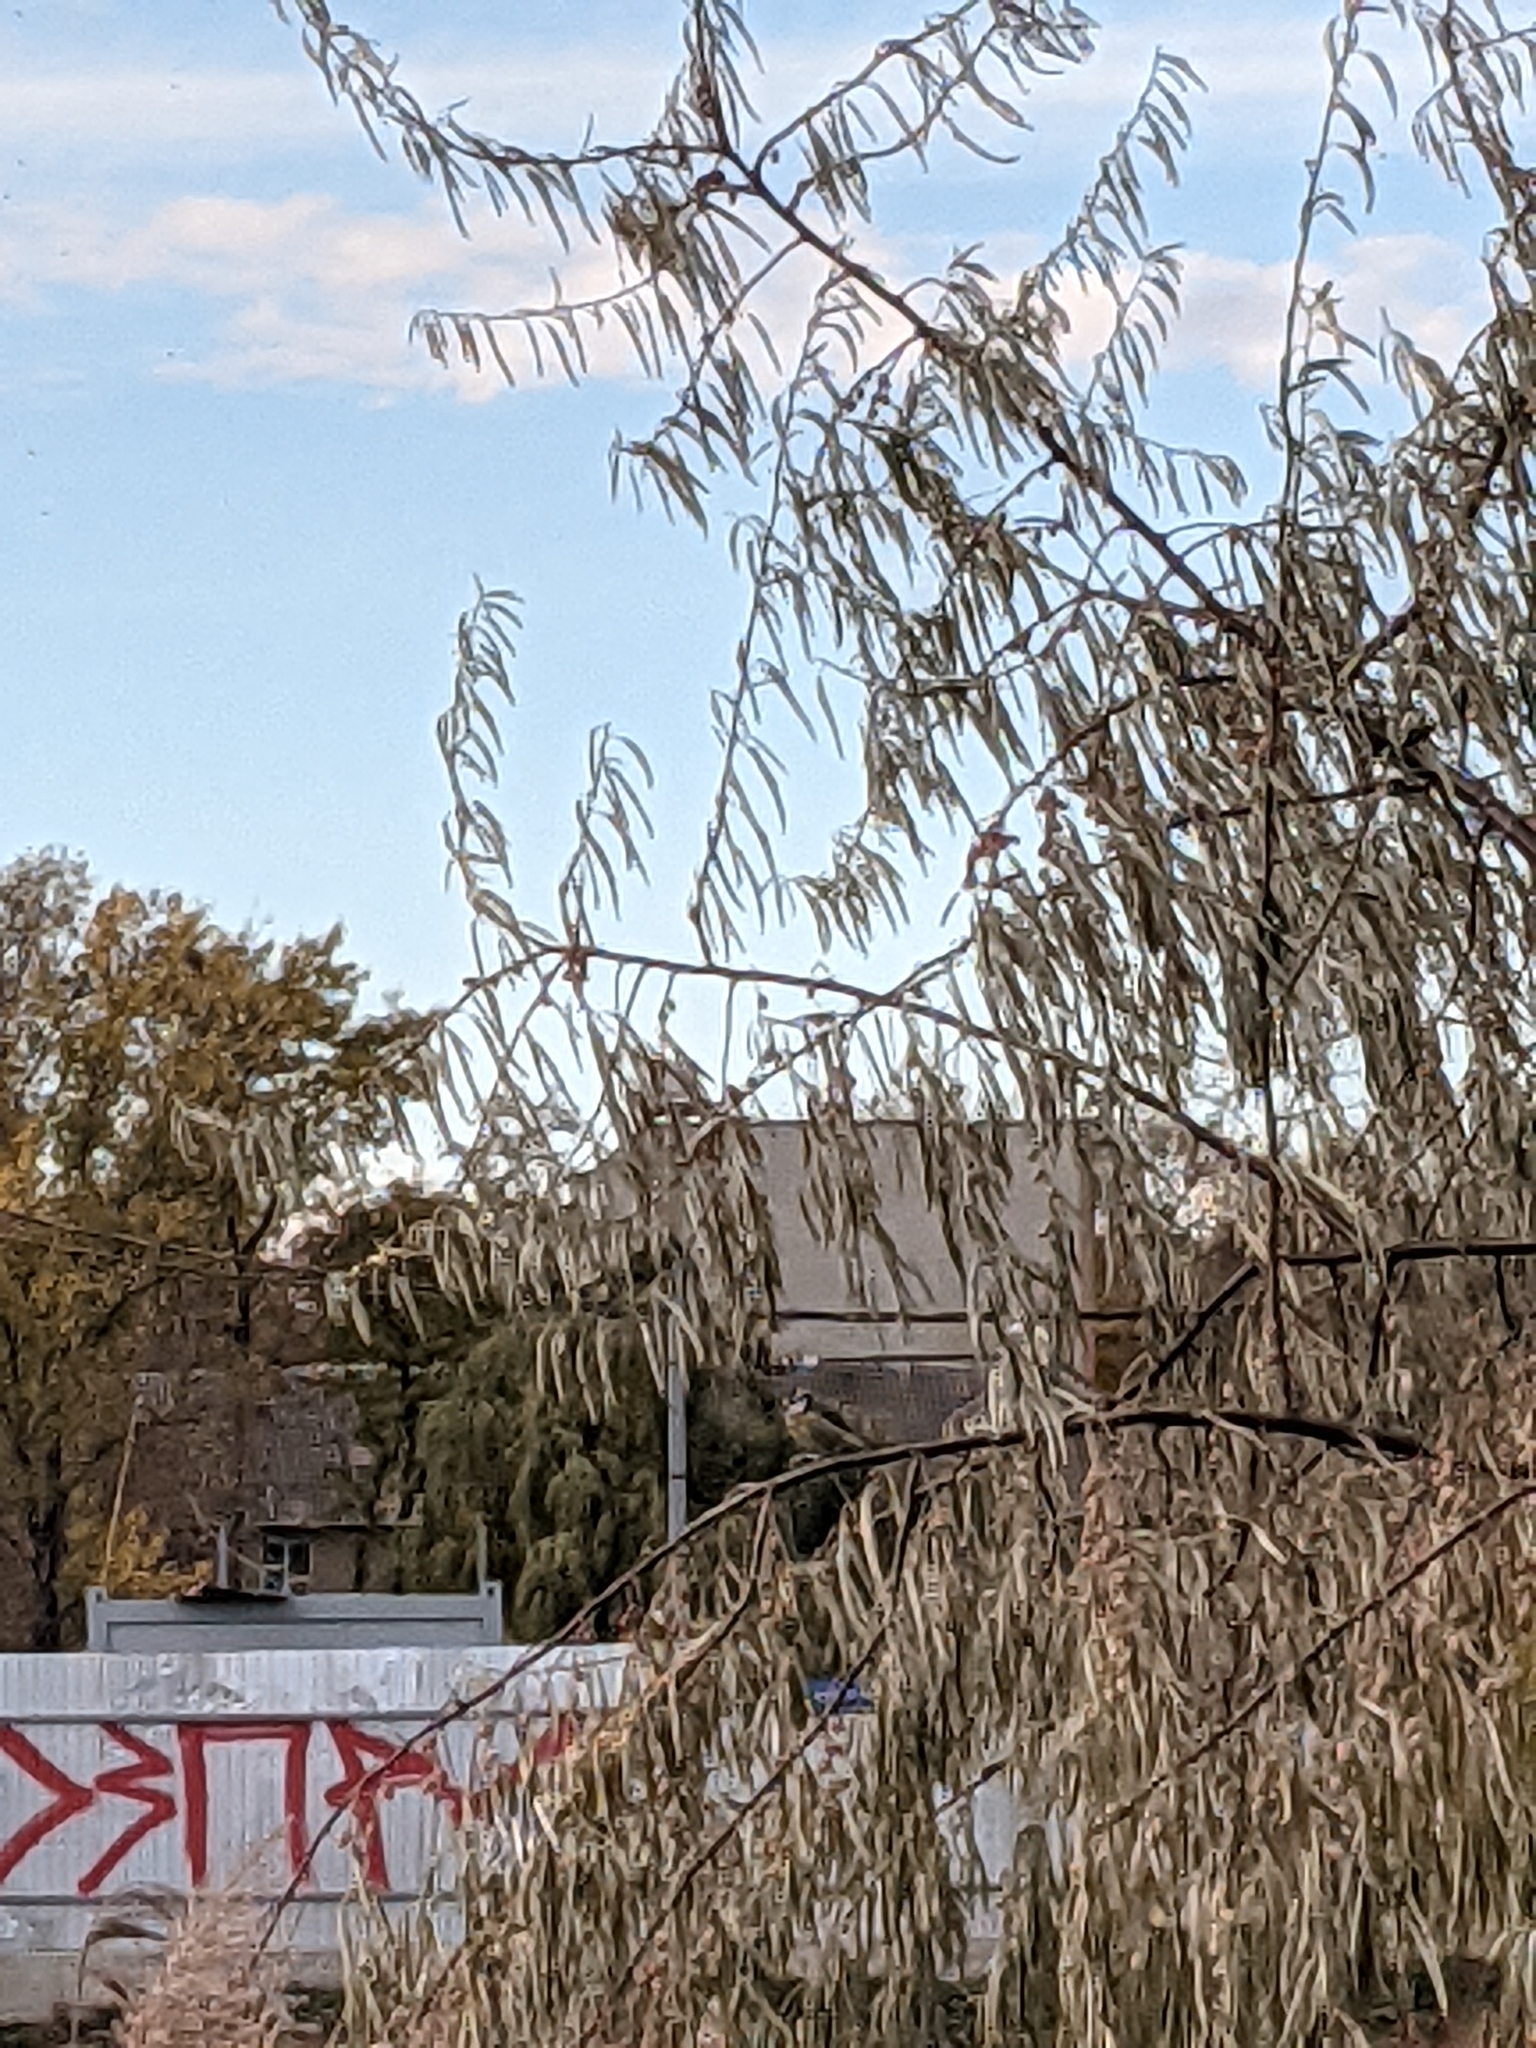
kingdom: Animalia
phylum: Chordata
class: Aves
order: Passeriformes
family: Paridae
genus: Cyanistes
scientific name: Cyanistes caeruleus
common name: Eurasian blue tit
